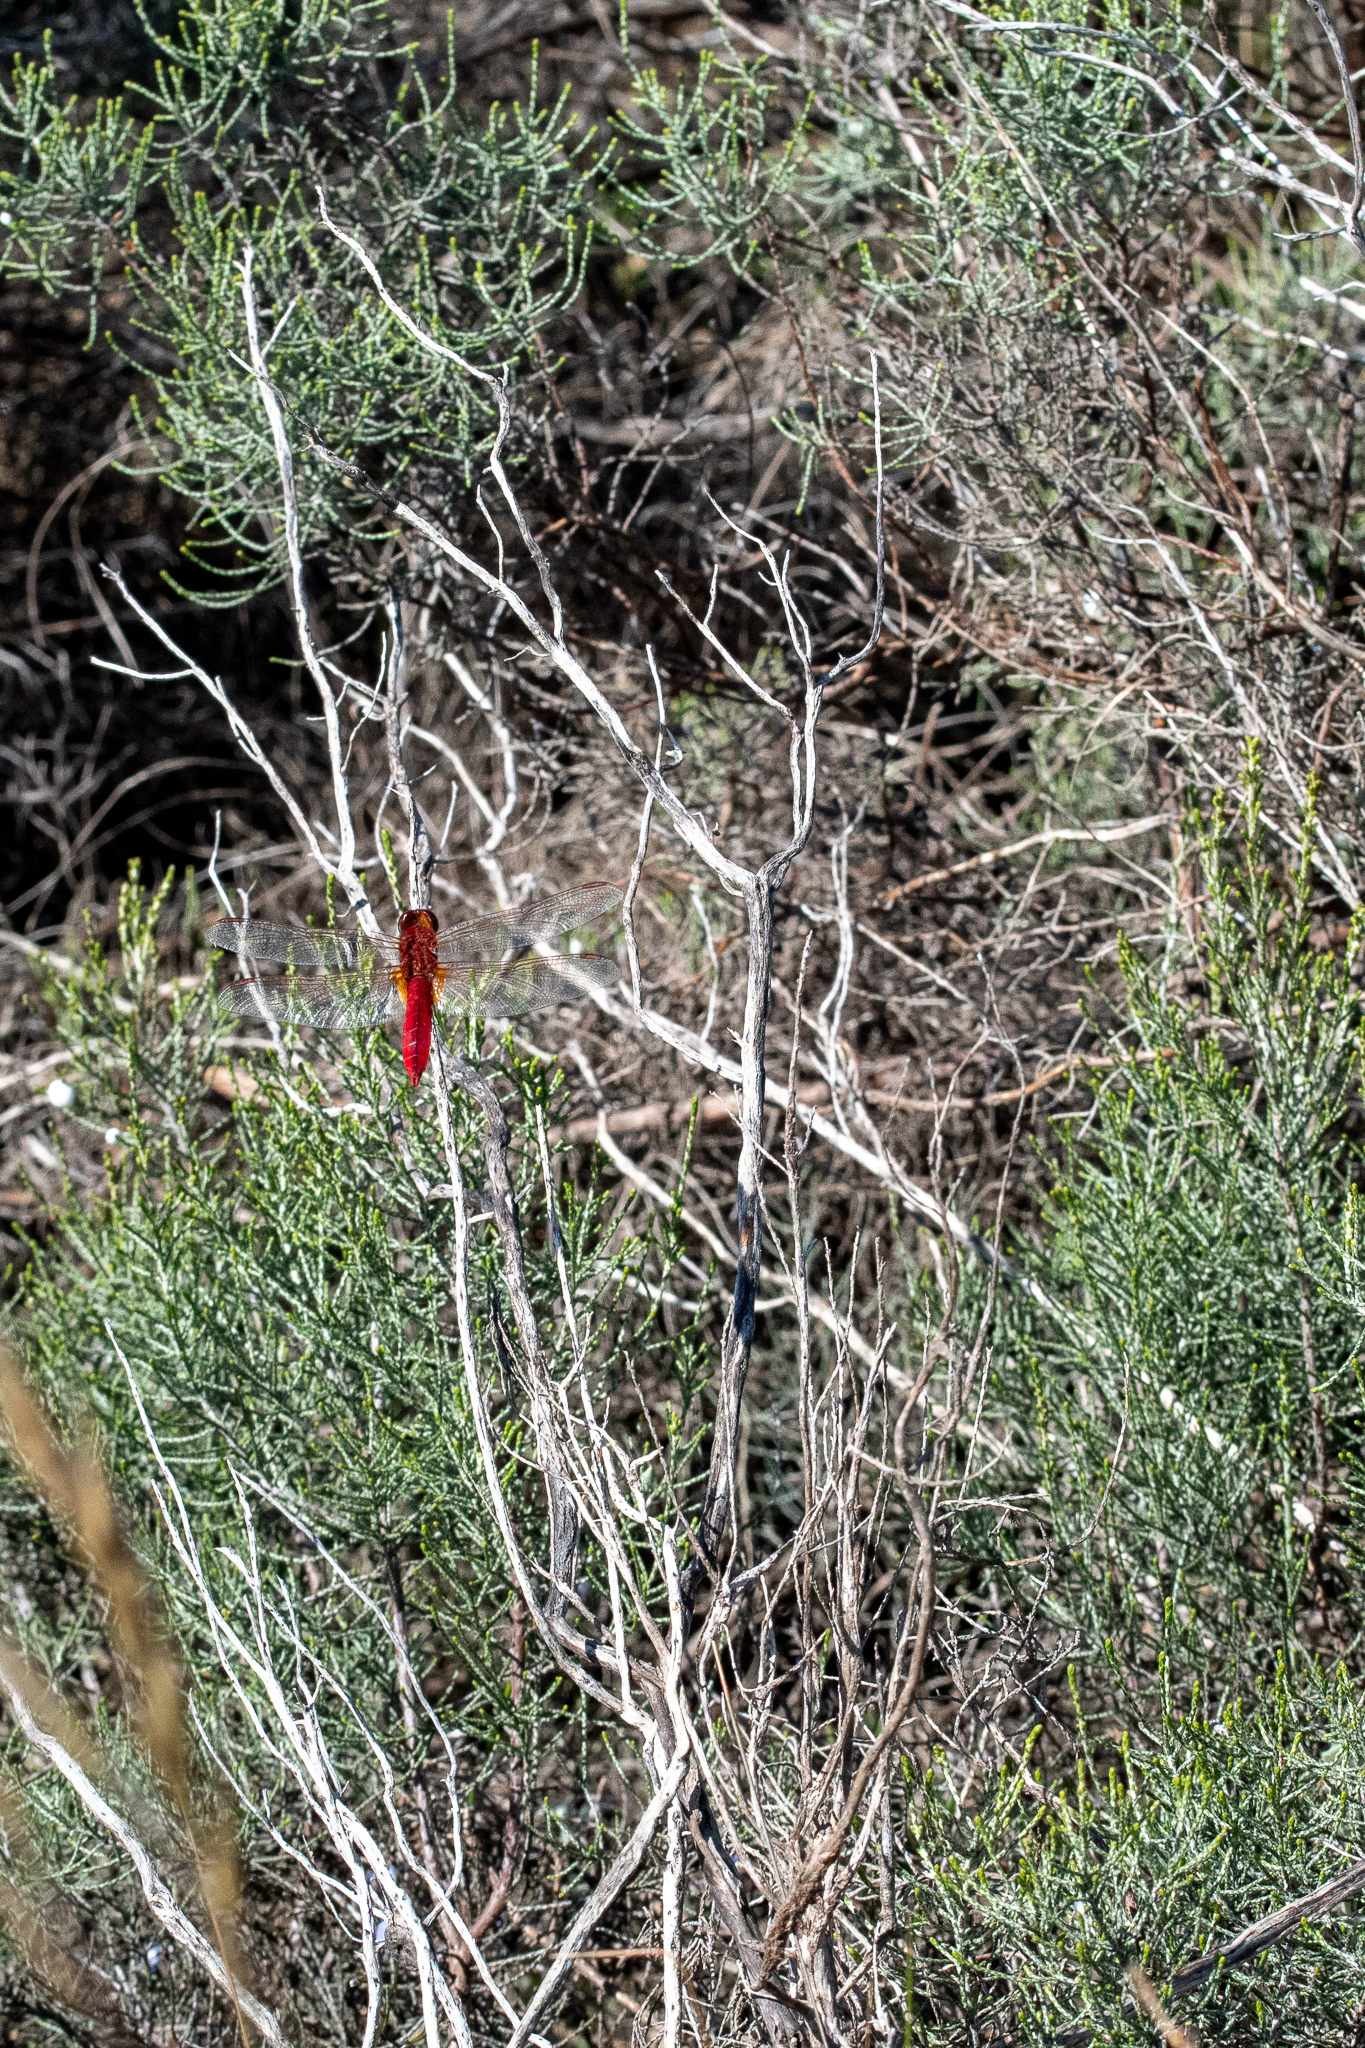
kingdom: Plantae
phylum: Tracheophyta
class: Magnoliopsida
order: Asterales
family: Asteraceae
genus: Dicerothamnus
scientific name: Dicerothamnus rhinocerotis
